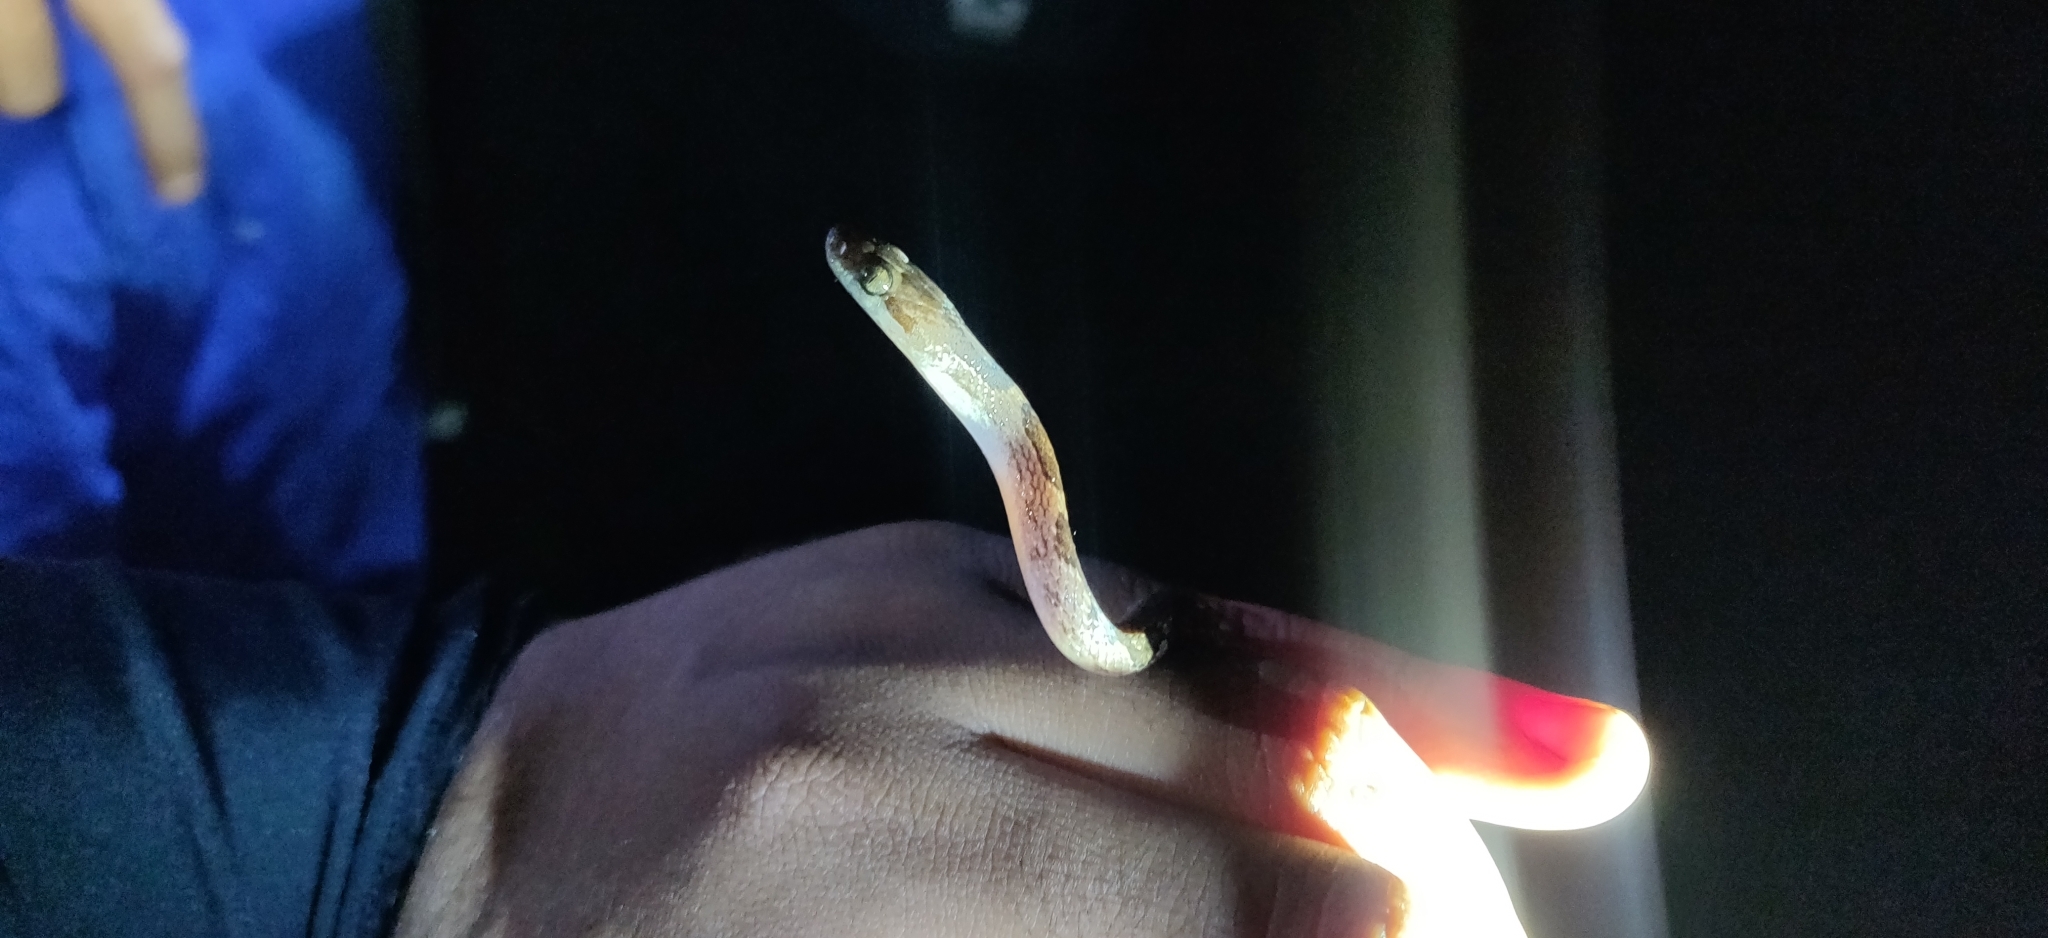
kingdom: Animalia
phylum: Chordata
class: Squamata
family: Colubridae
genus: Leptodeira
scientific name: Leptodeira ashmeadii
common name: Banded cat-eyed snake
